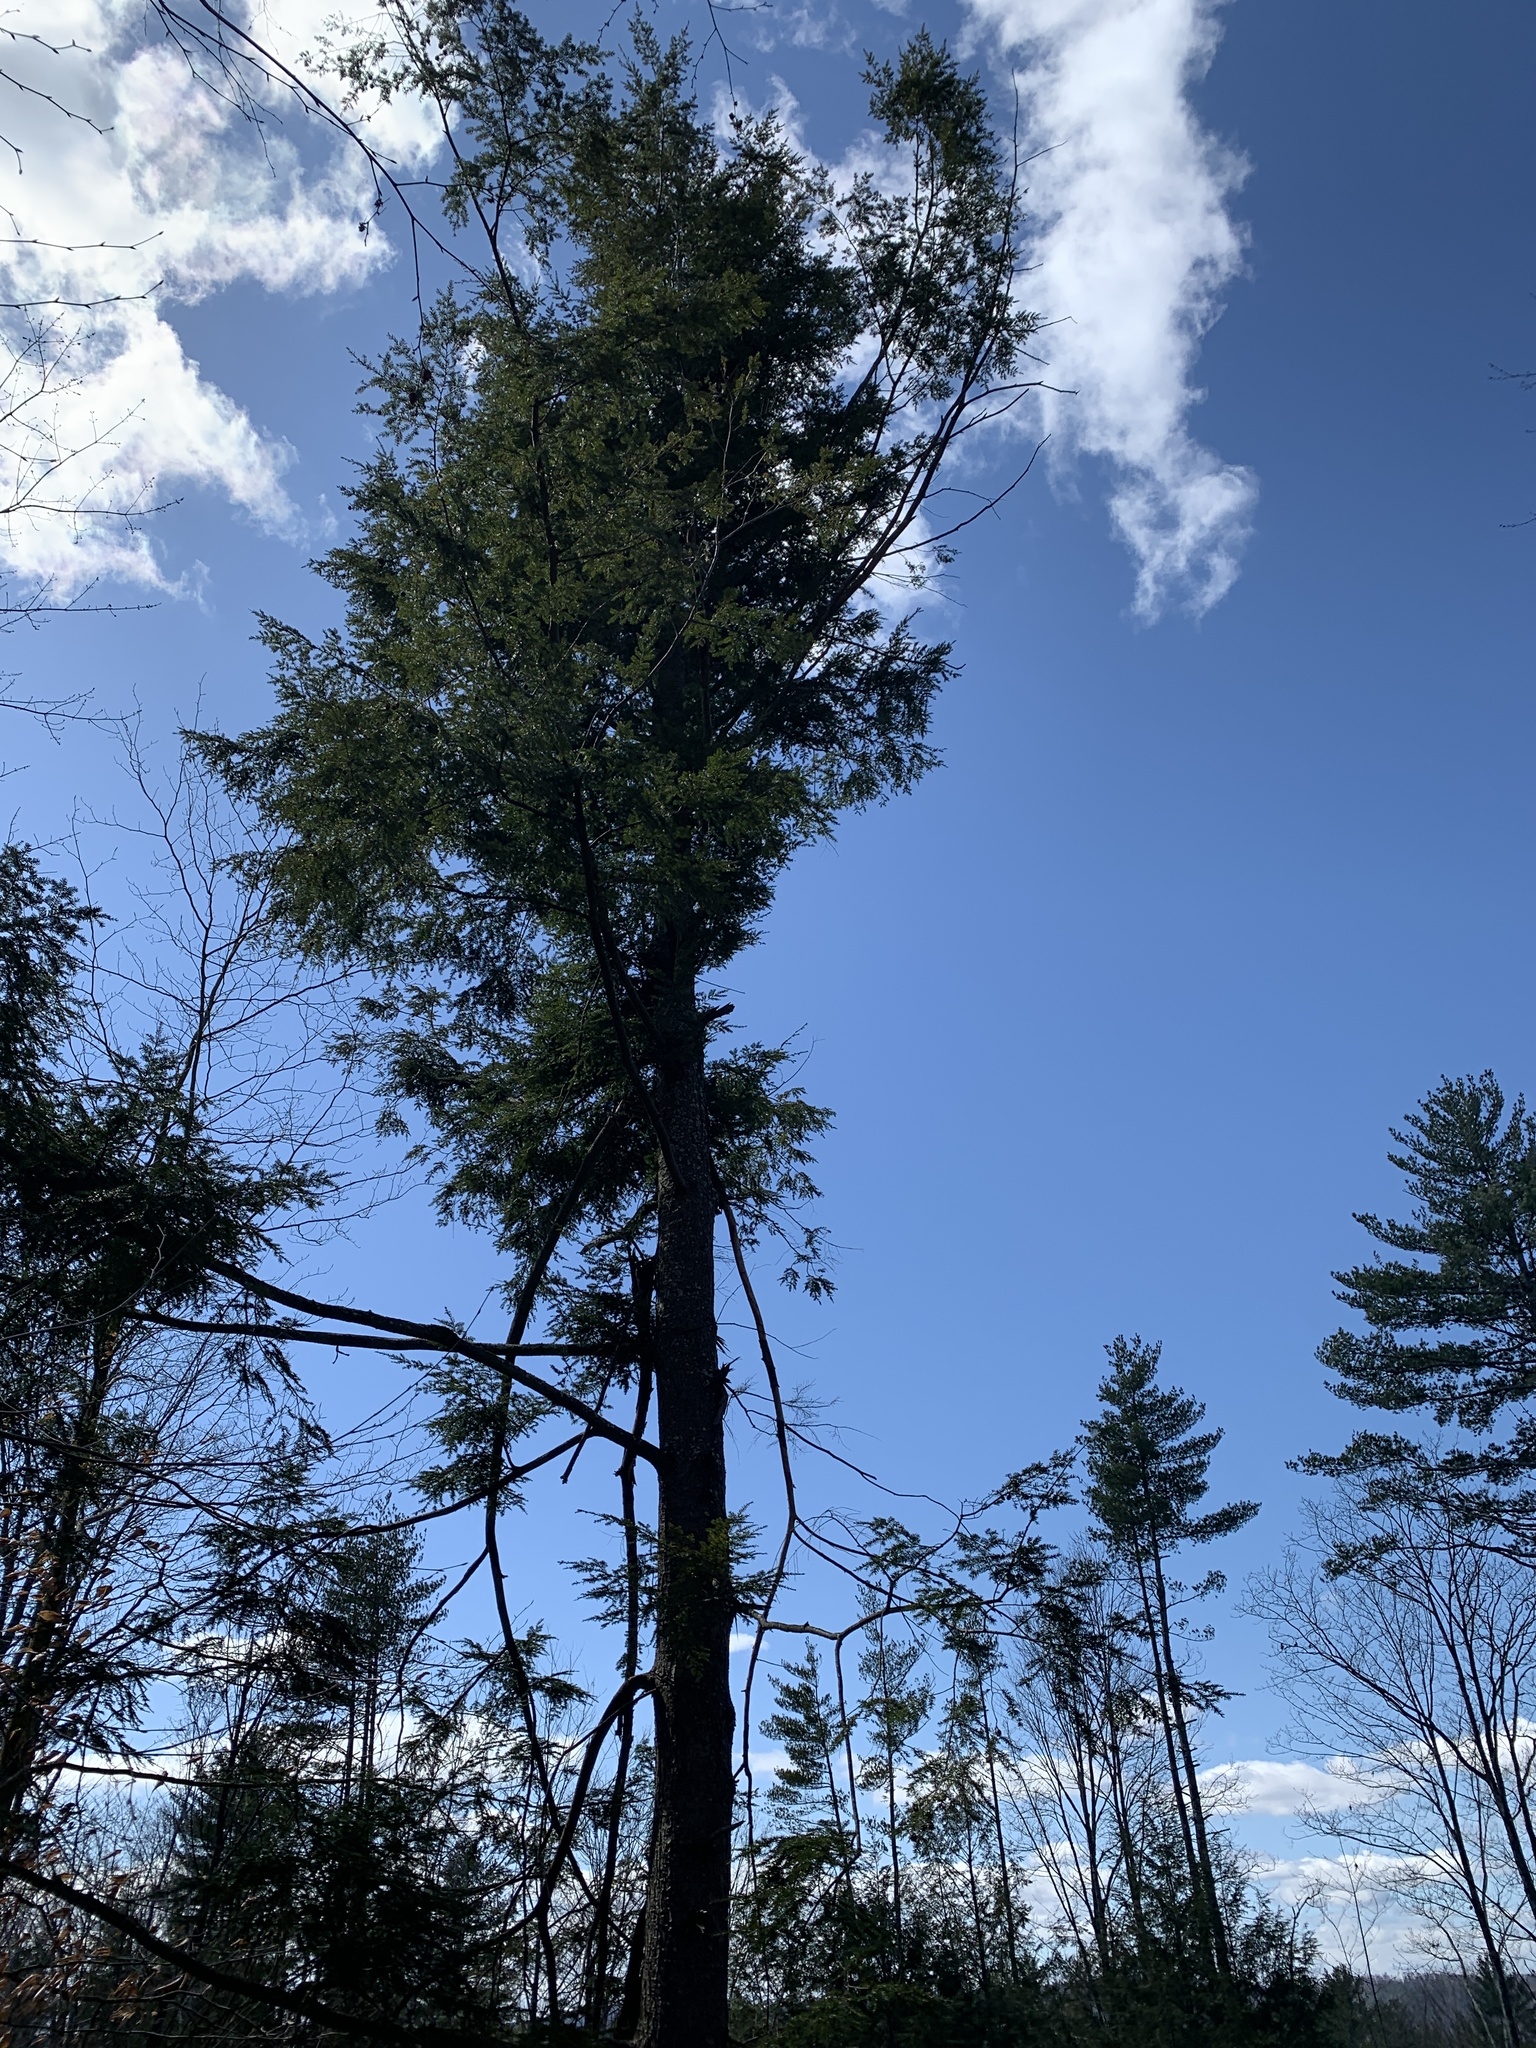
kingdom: Plantae
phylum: Tracheophyta
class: Pinopsida
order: Pinales
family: Pinaceae
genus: Tsuga
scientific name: Tsuga canadensis
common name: Eastern hemlock
